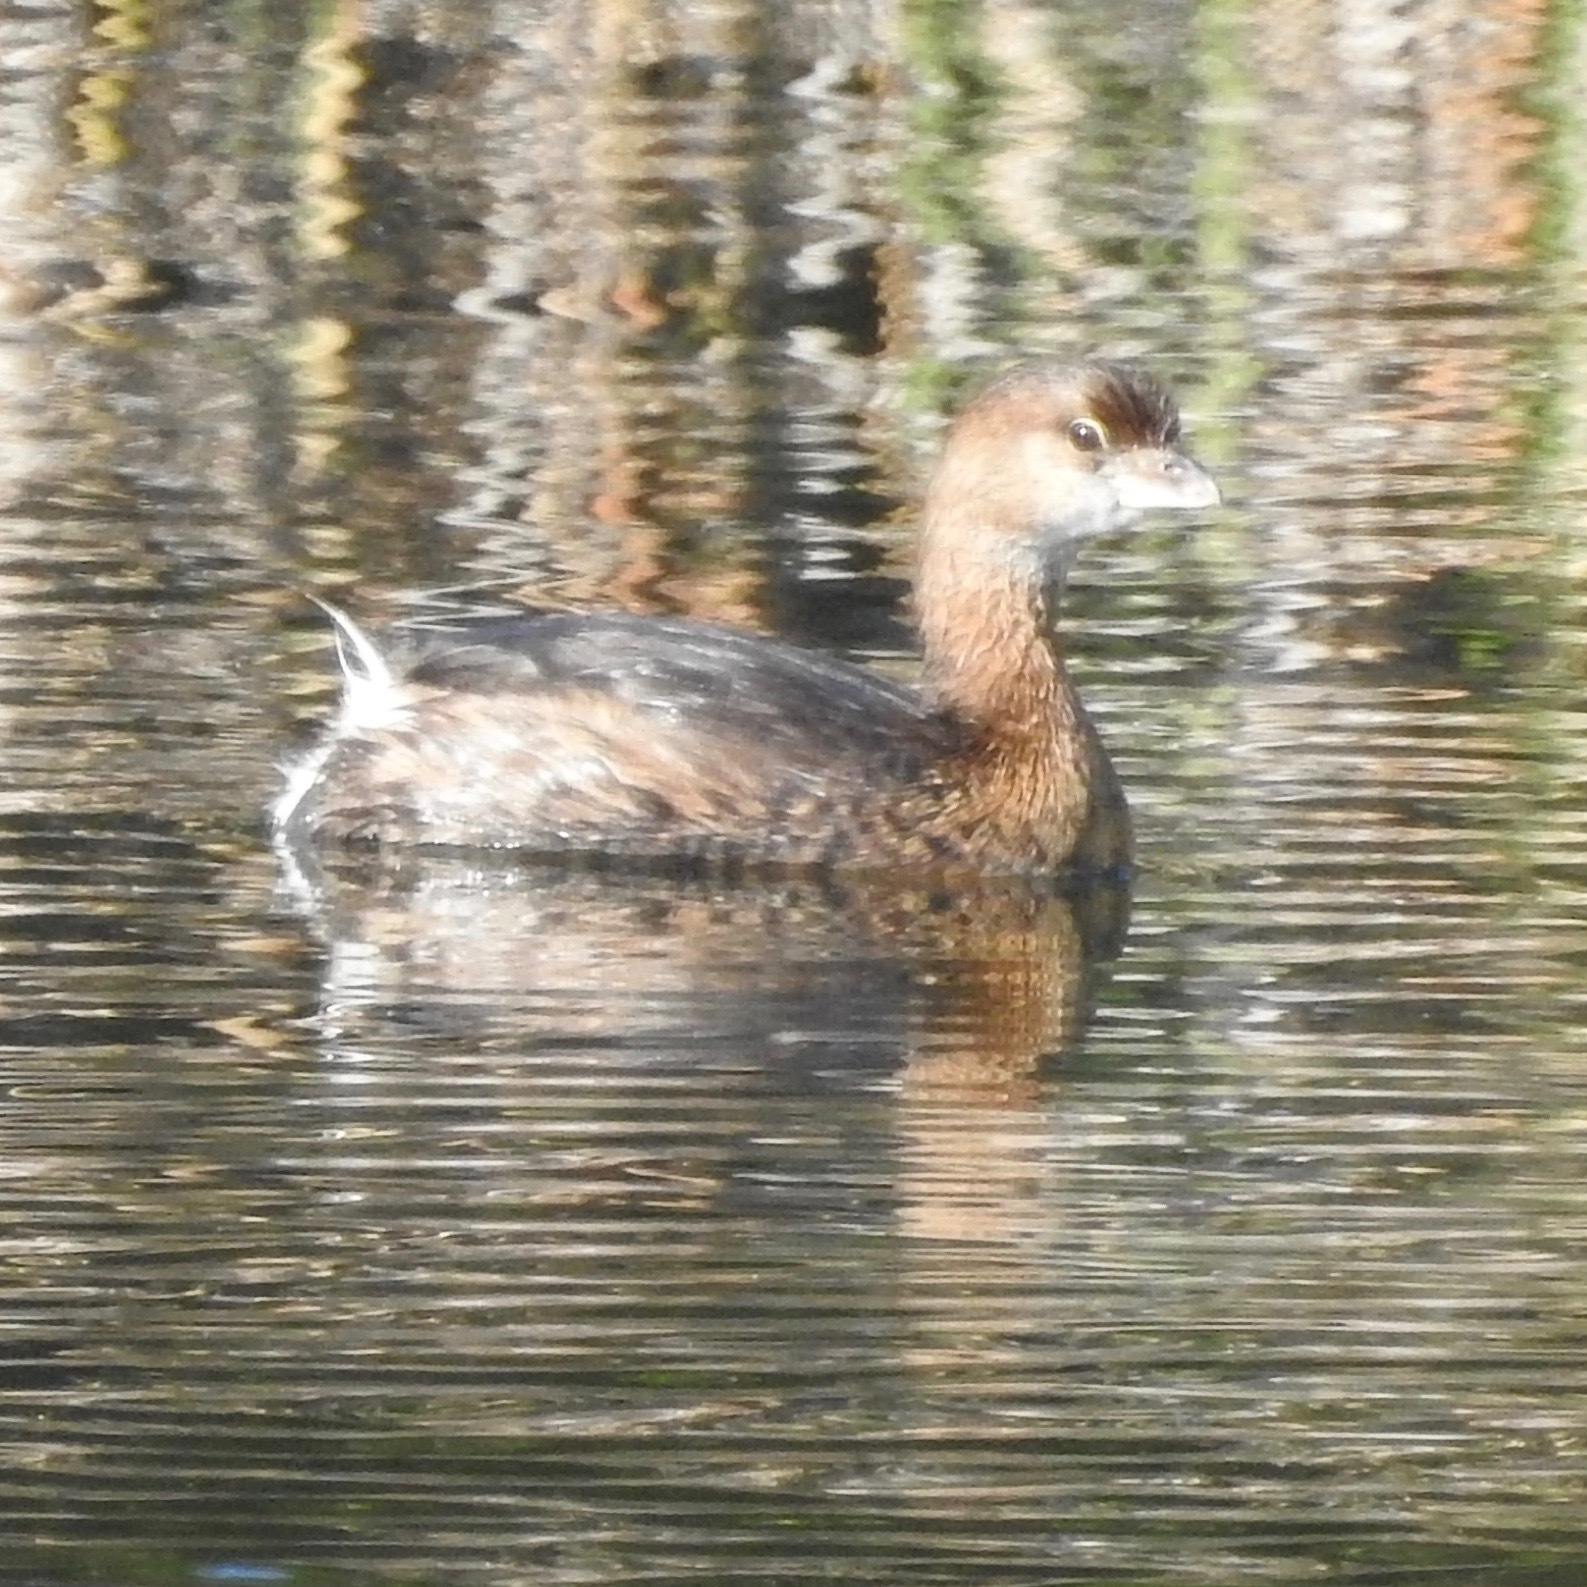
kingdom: Animalia
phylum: Chordata
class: Aves
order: Podicipediformes
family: Podicipedidae
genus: Podilymbus
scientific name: Podilymbus podiceps
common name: Pied-billed grebe
